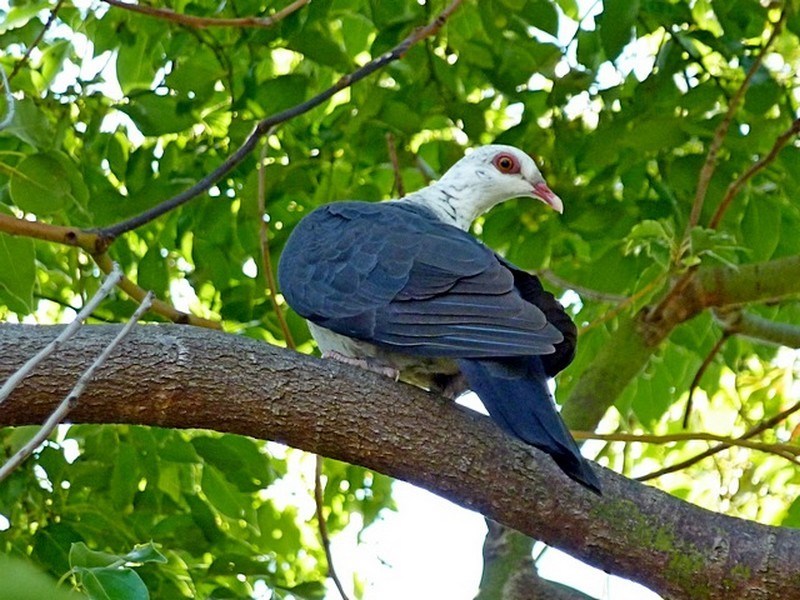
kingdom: Animalia
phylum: Chordata
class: Aves
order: Columbiformes
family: Columbidae
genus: Columba
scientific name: Columba leucomela
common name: White-headed pigeon
